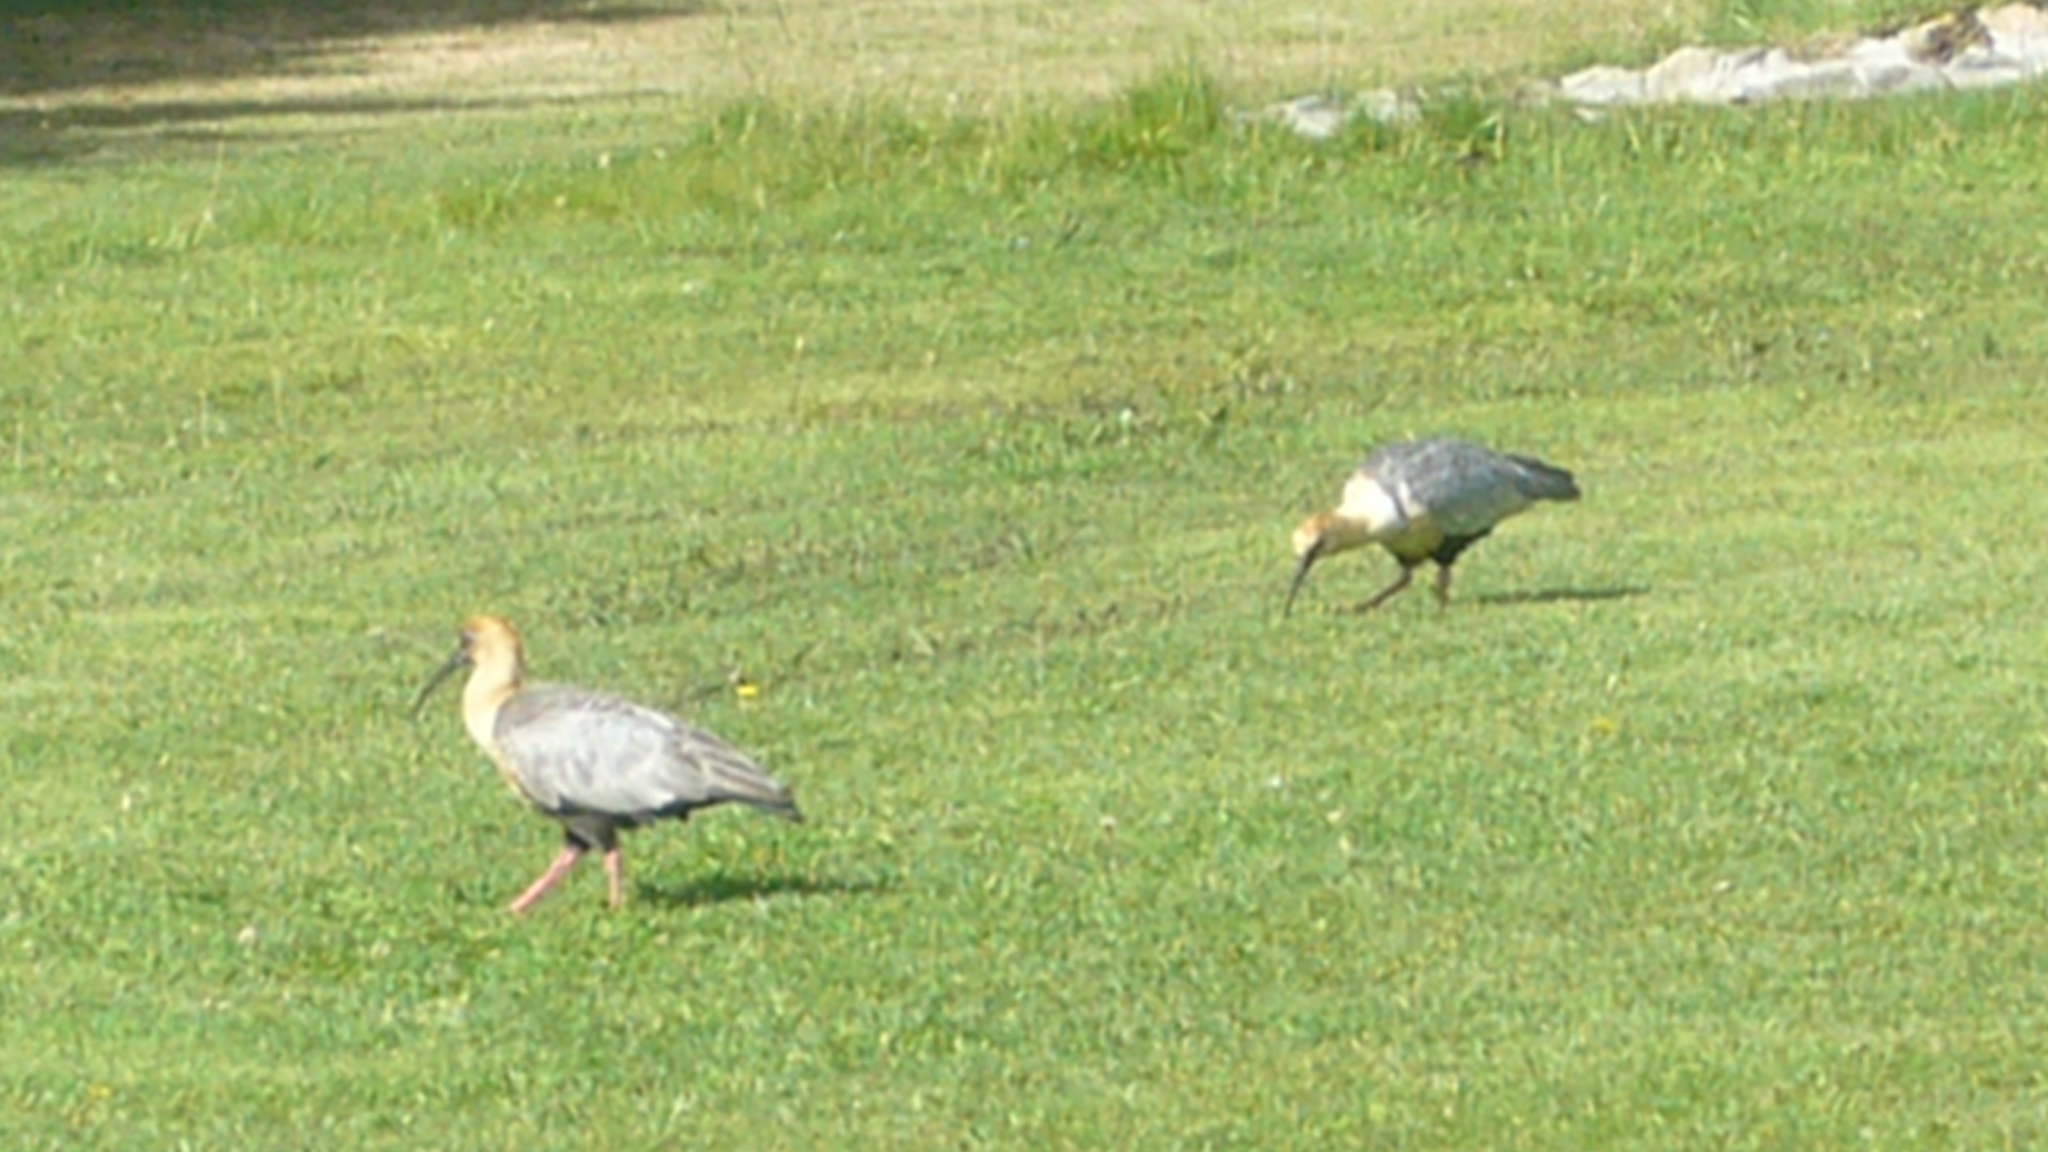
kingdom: Animalia
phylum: Chordata
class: Aves
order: Pelecaniformes
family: Threskiornithidae
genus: Theristicus
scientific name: Theristicus melanopis
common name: Black-faced ibis
